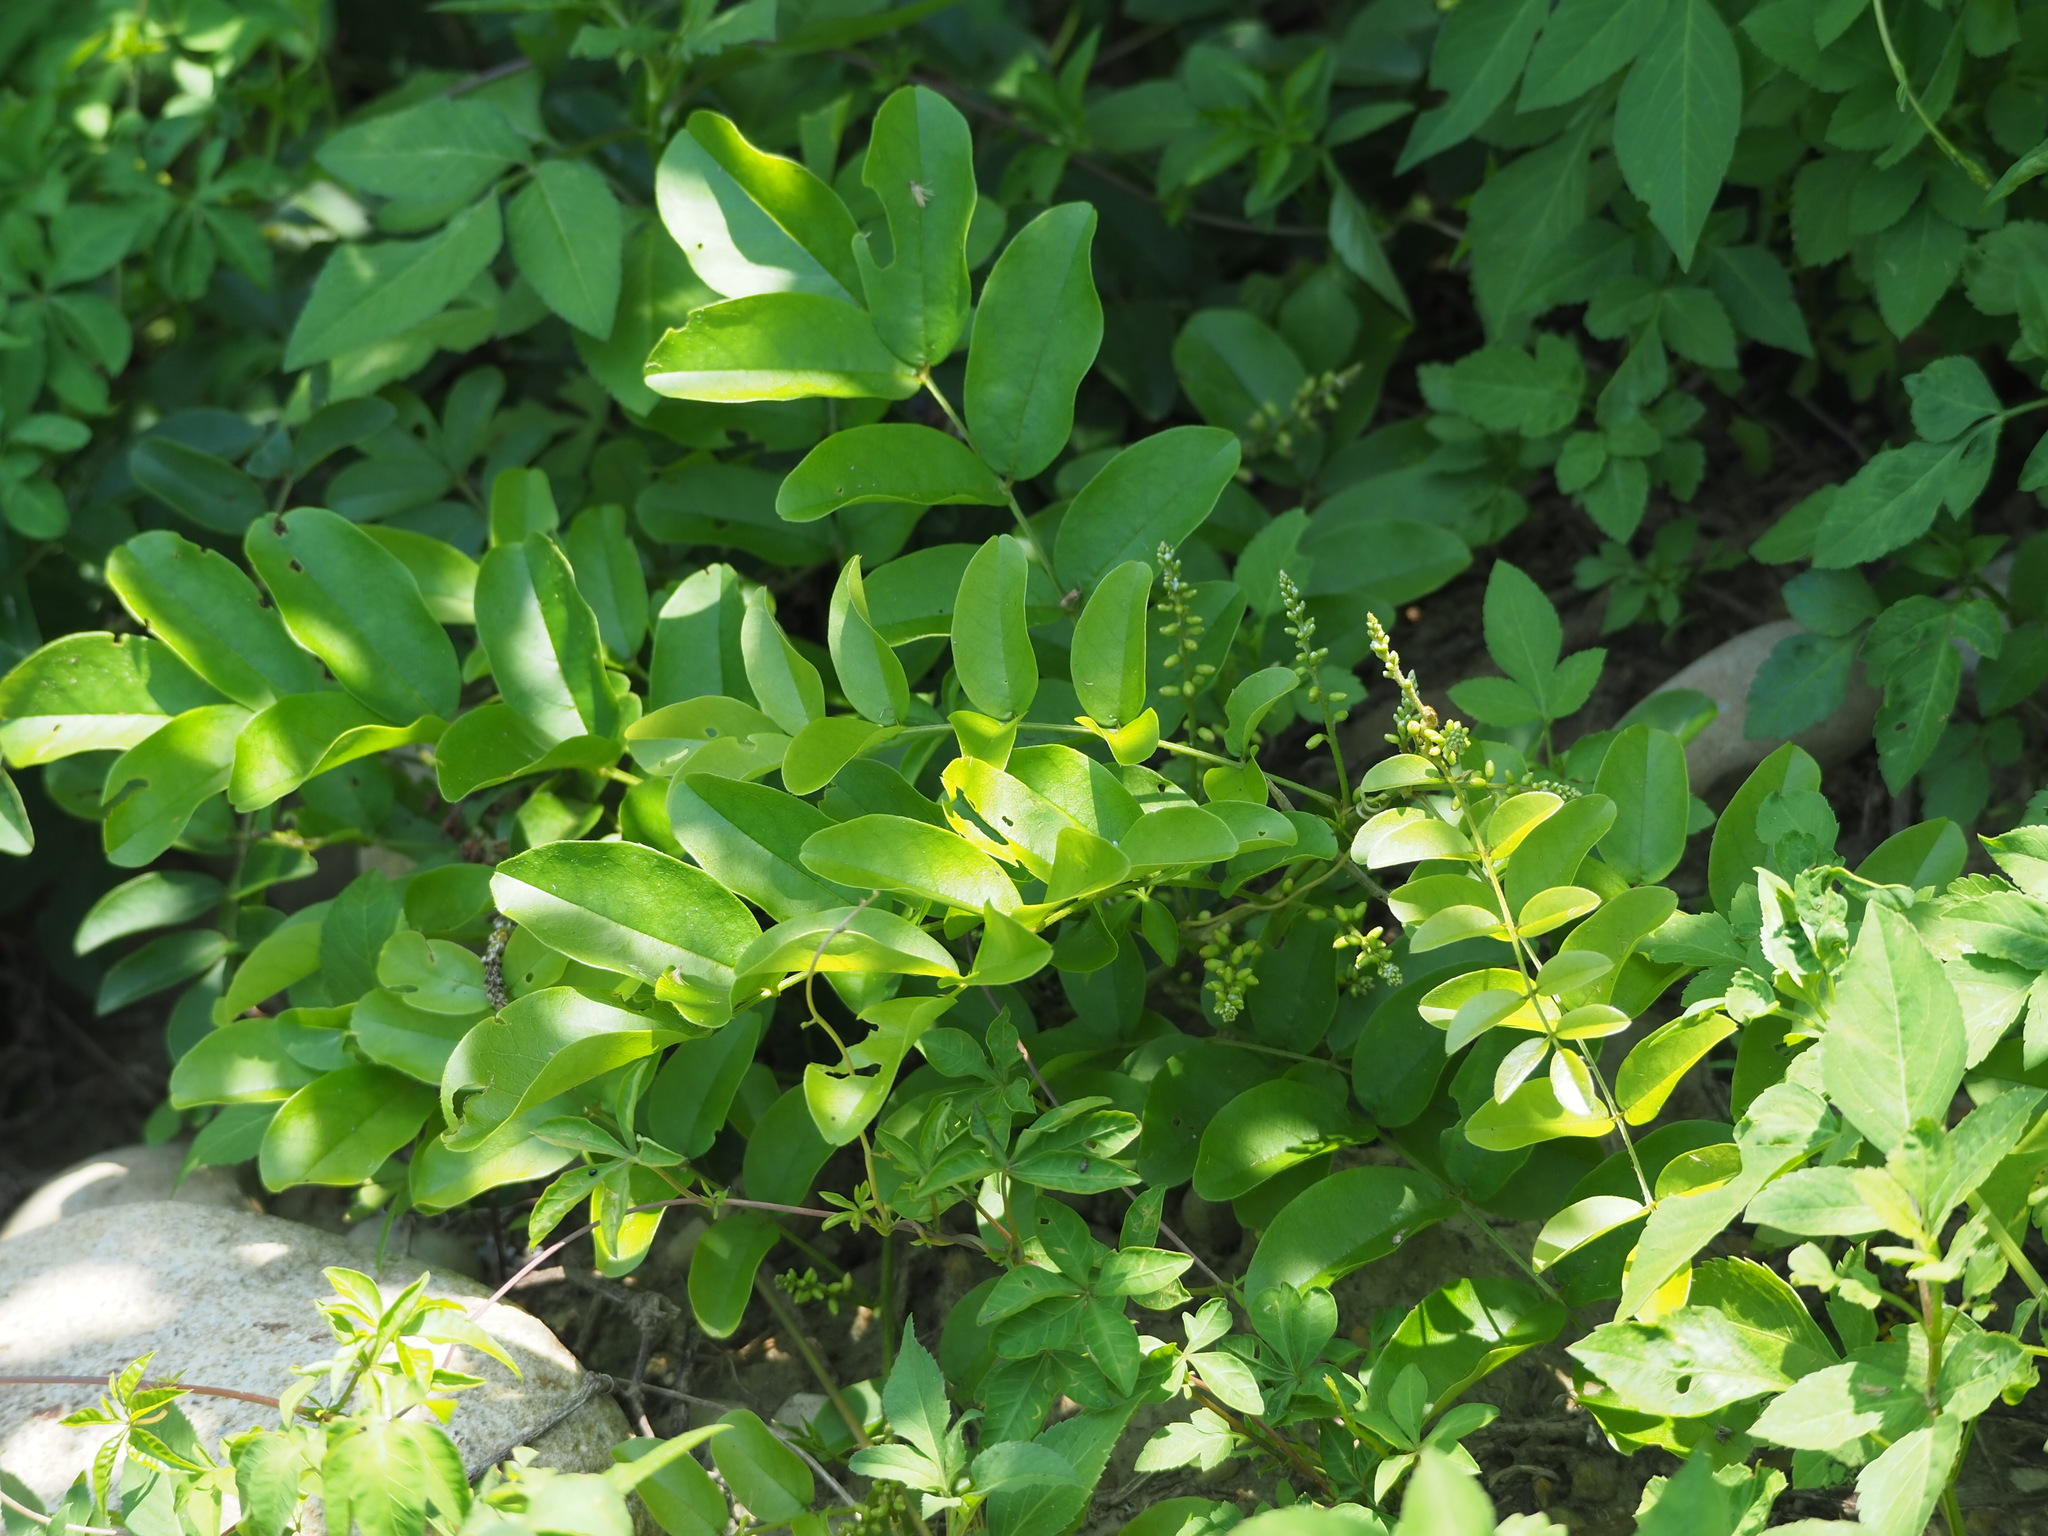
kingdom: Plantae
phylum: Tracheophyta
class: Magnoliopsida
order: Fabales
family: Fabaceae
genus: Wisteriopsis
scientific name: Wisteriopsis reticulata
